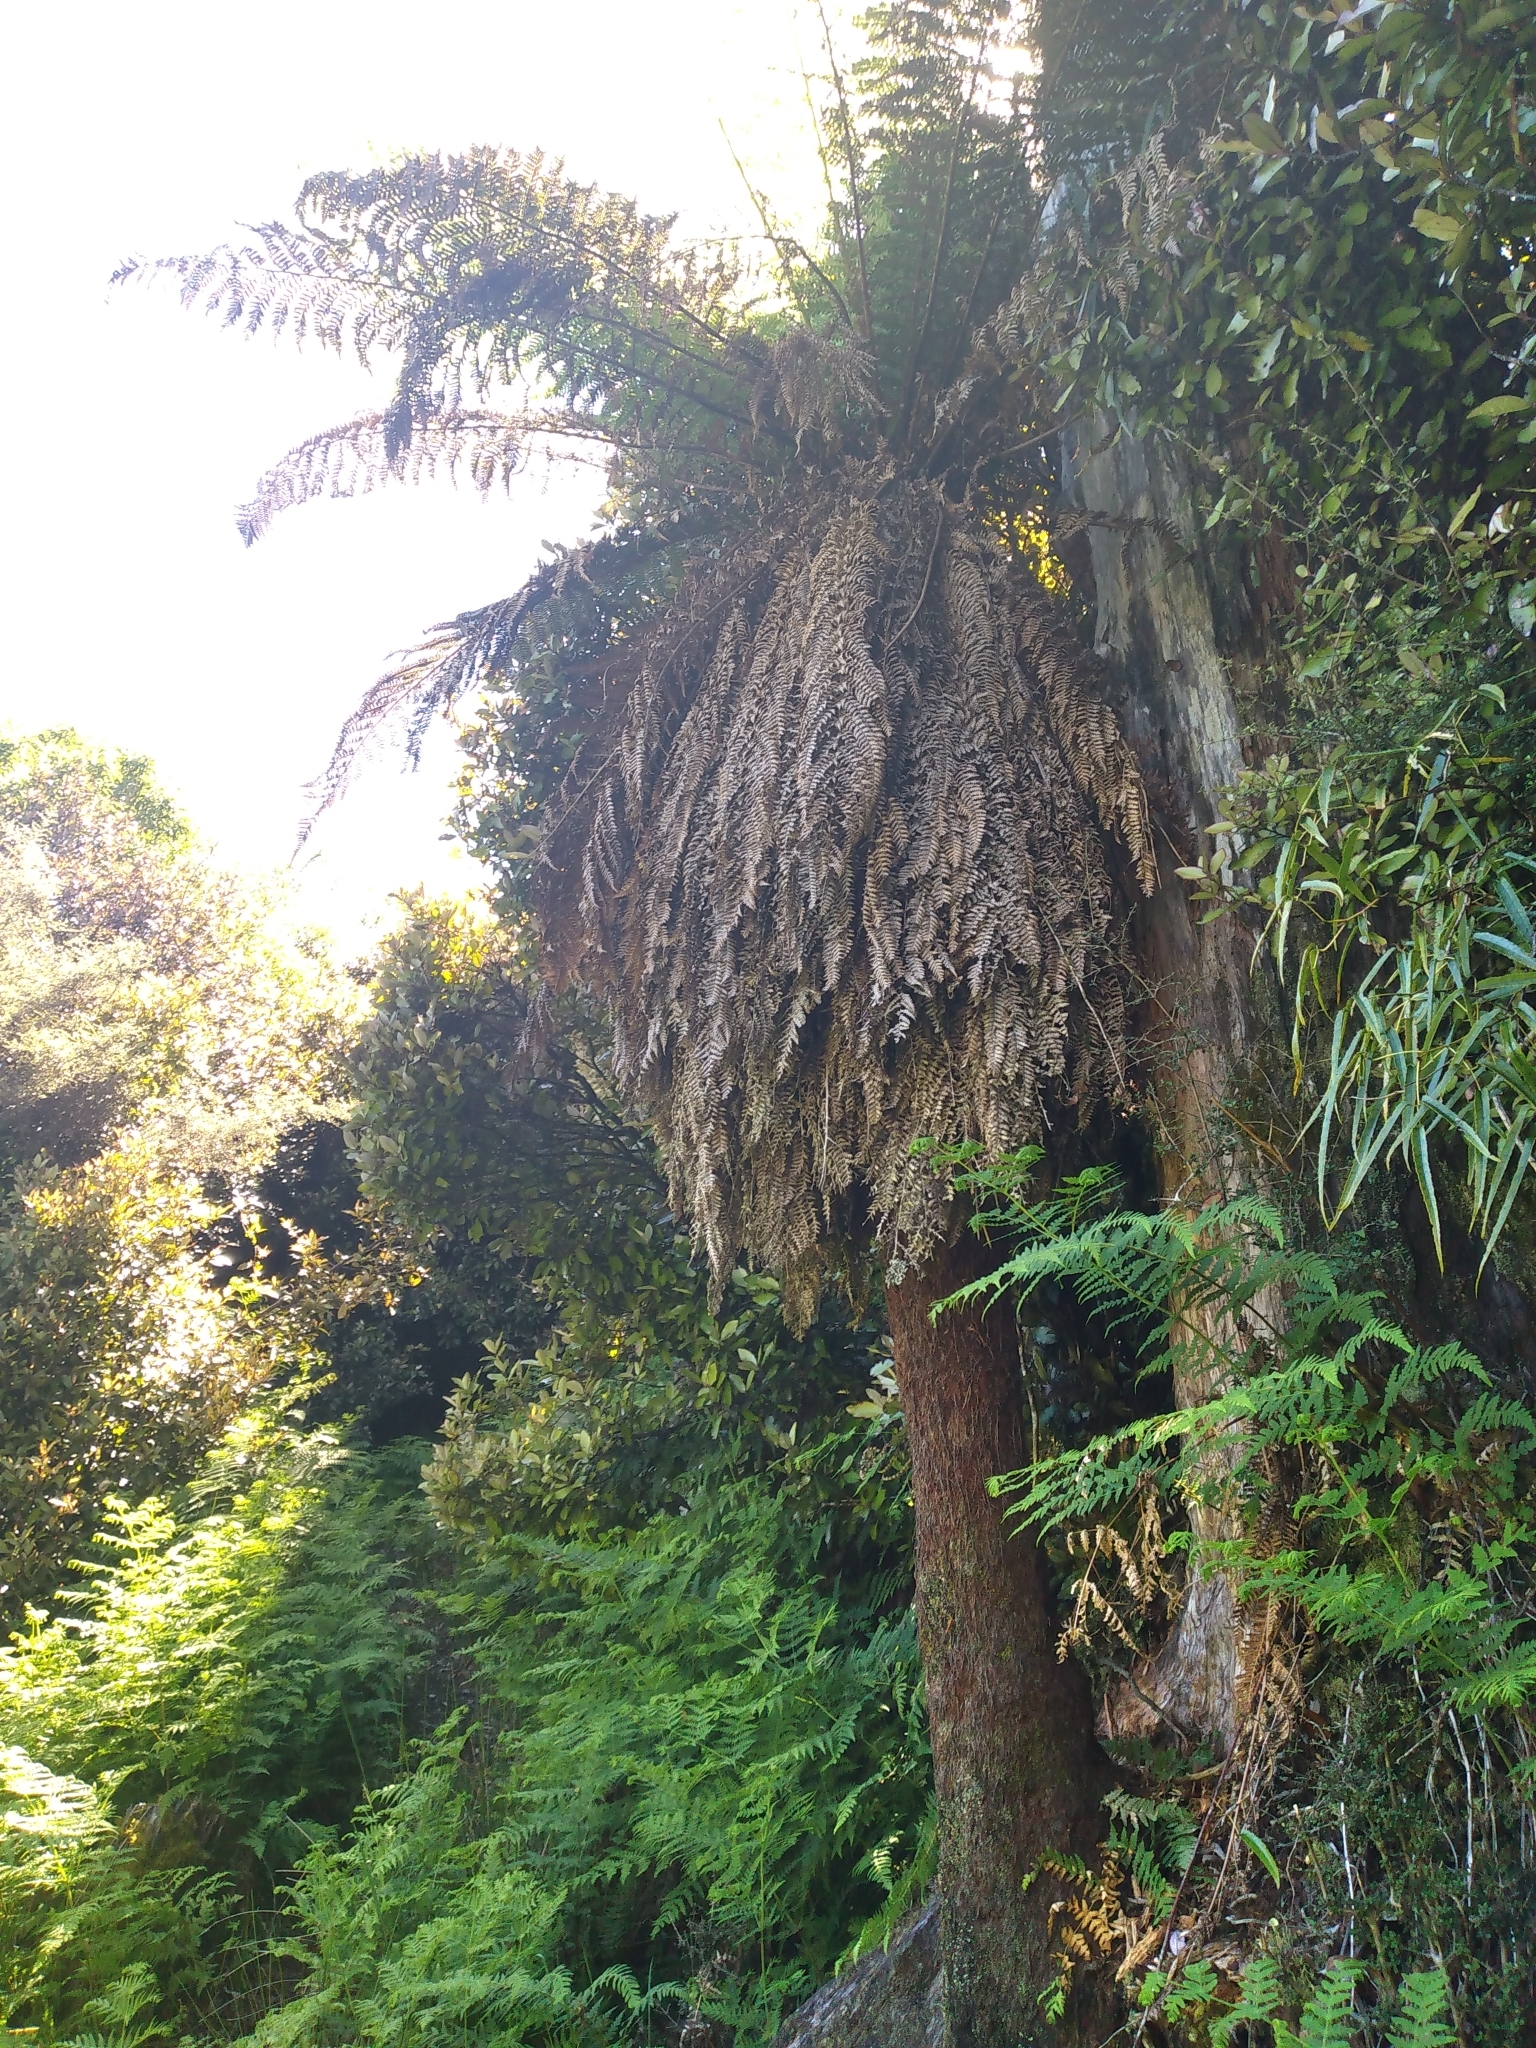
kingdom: Plantae
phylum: Tracheophyta
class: Polypodiopsida
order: Cyatheales
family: Dicksoniaceae
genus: Dicksonia
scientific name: Dicksonia fibrosa
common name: Golden tree fern
